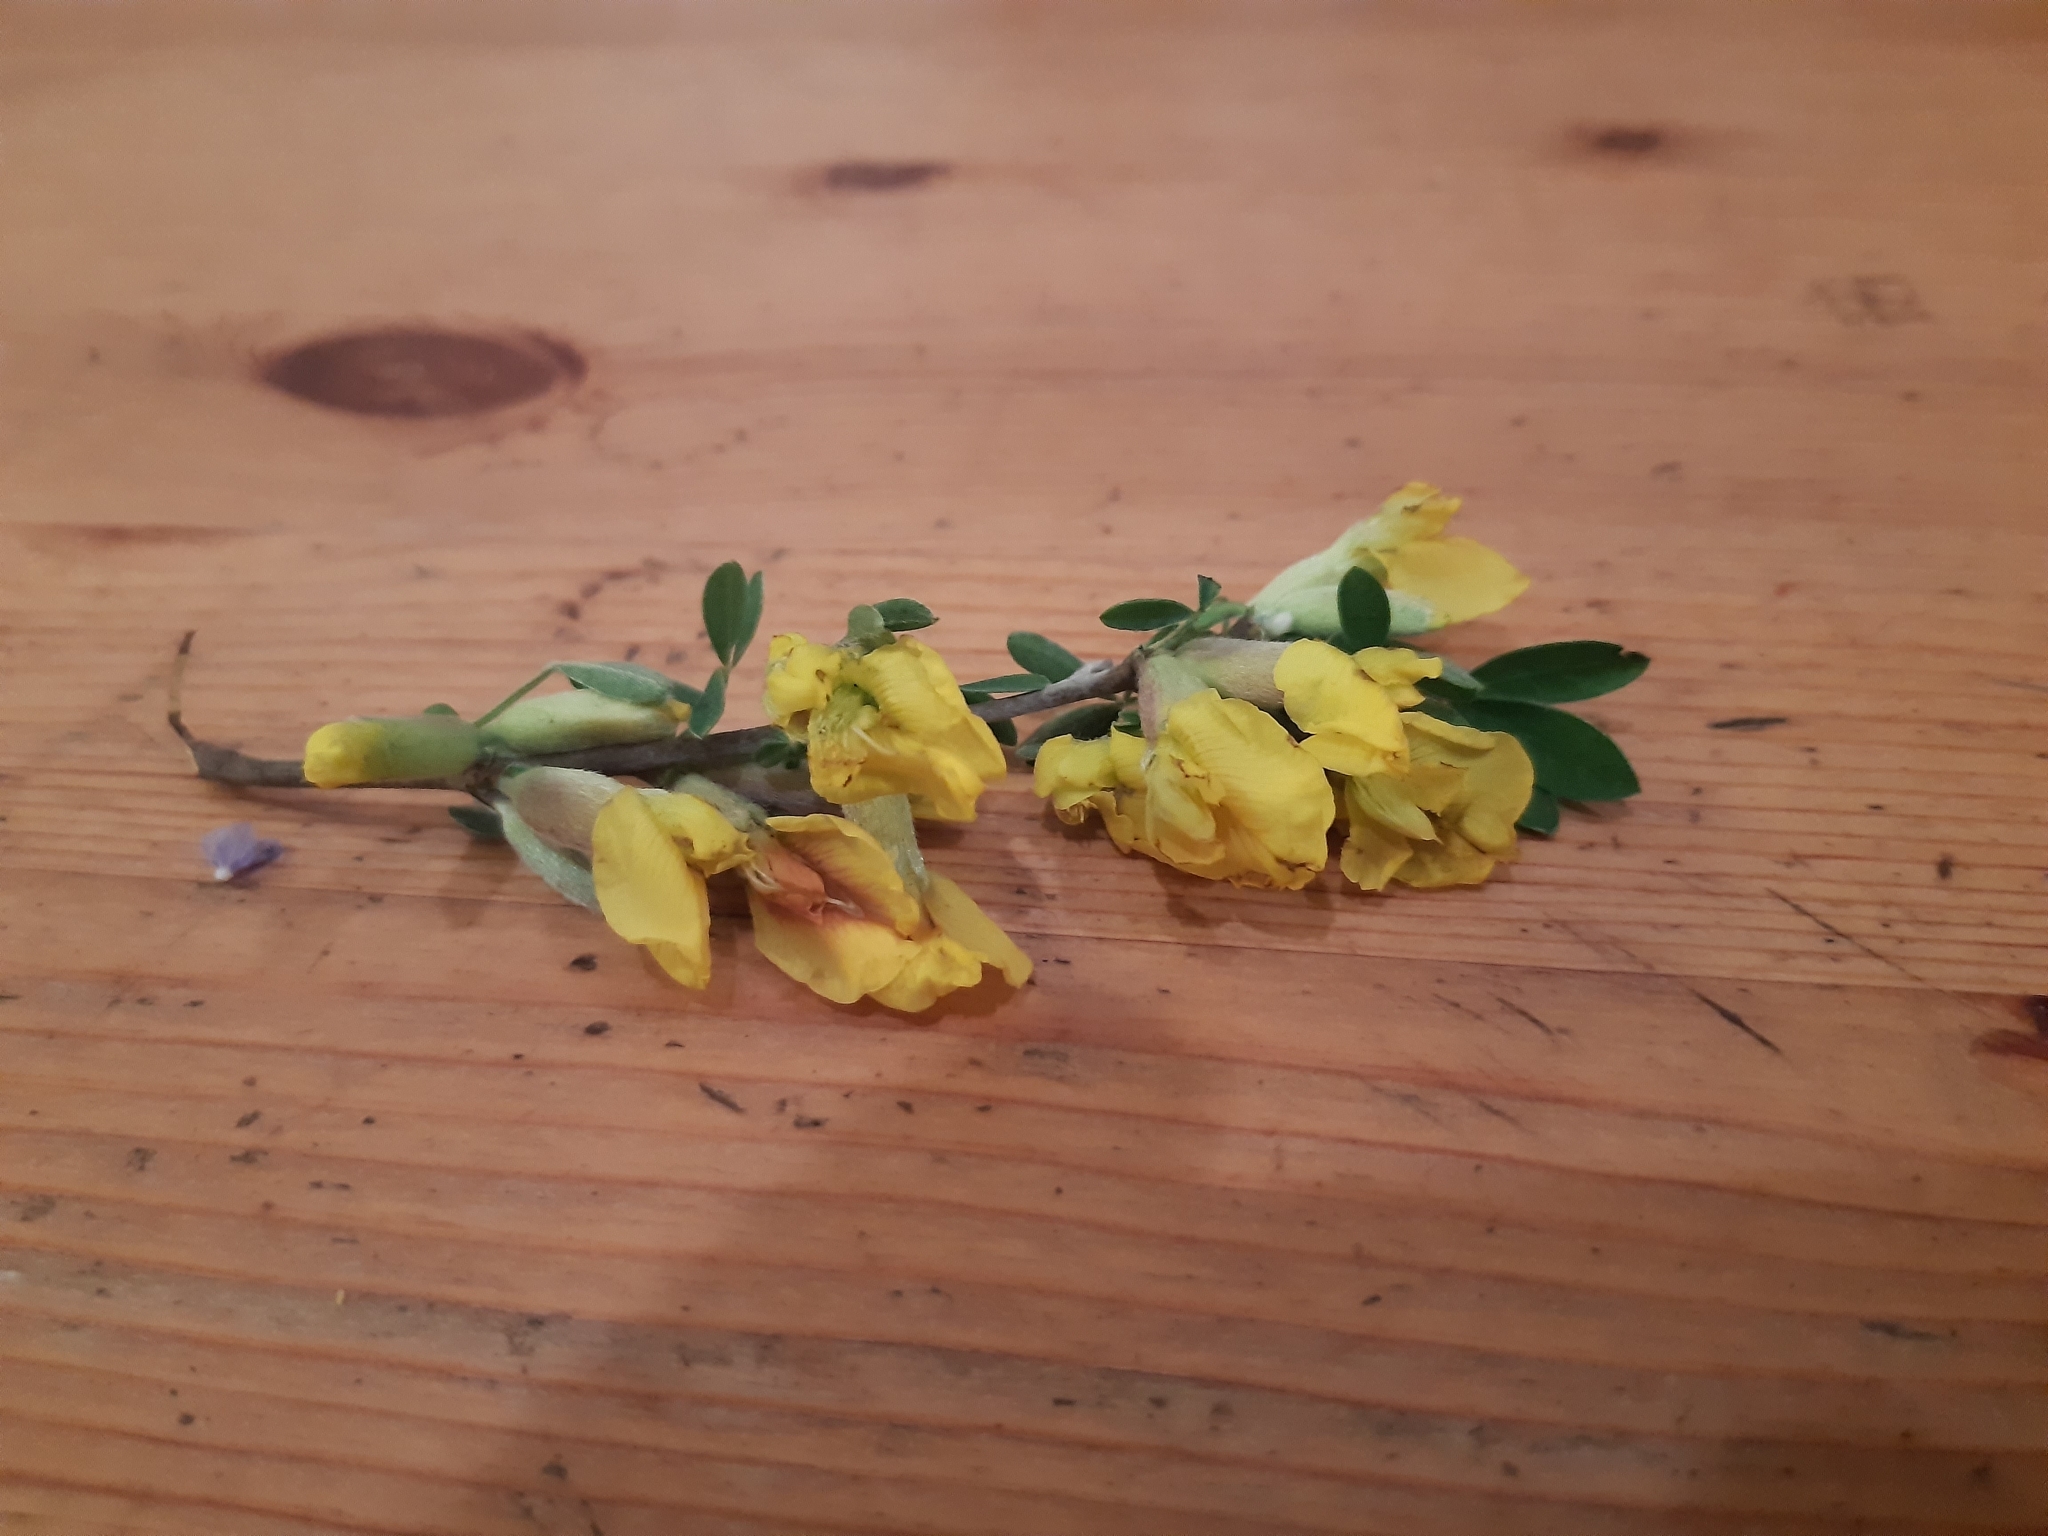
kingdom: Plantae
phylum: Tracheophyta
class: Magnoliopsida
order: Fabales
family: Fabaceae
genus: Chamaecytisus
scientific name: Chamaecytisus ratisbonensis
